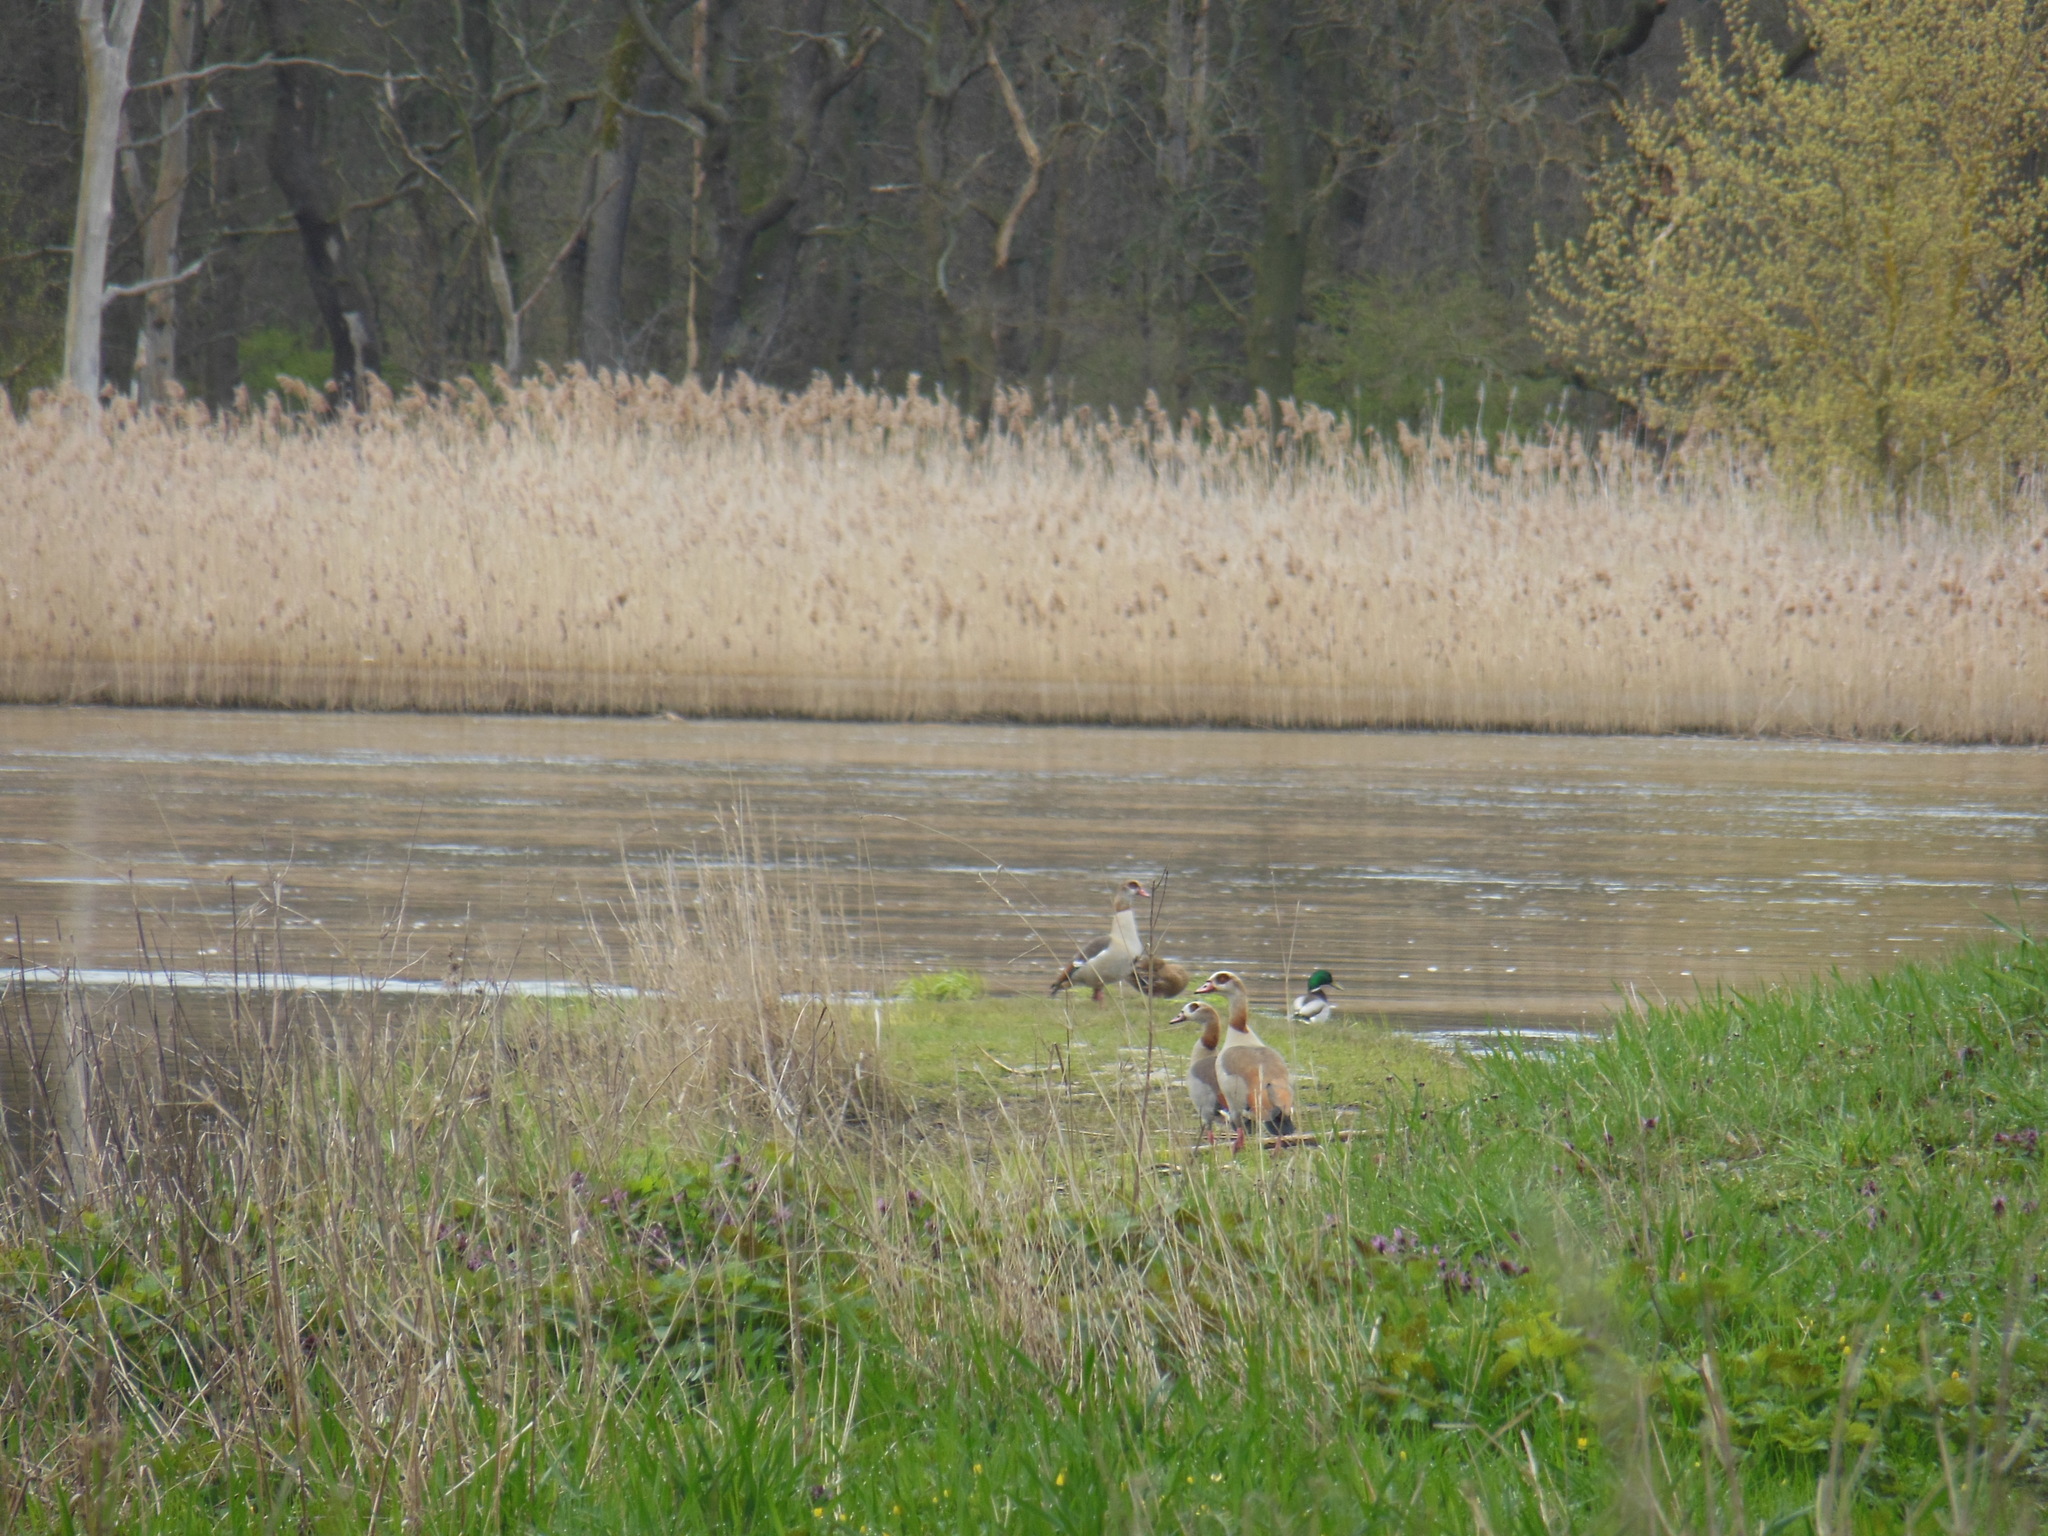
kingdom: Animalia
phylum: Chordata
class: Aves
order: Anseriformes
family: Anatidae
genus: Alopochen
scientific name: Alopochen aegyptiaca
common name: Egyptian goose
